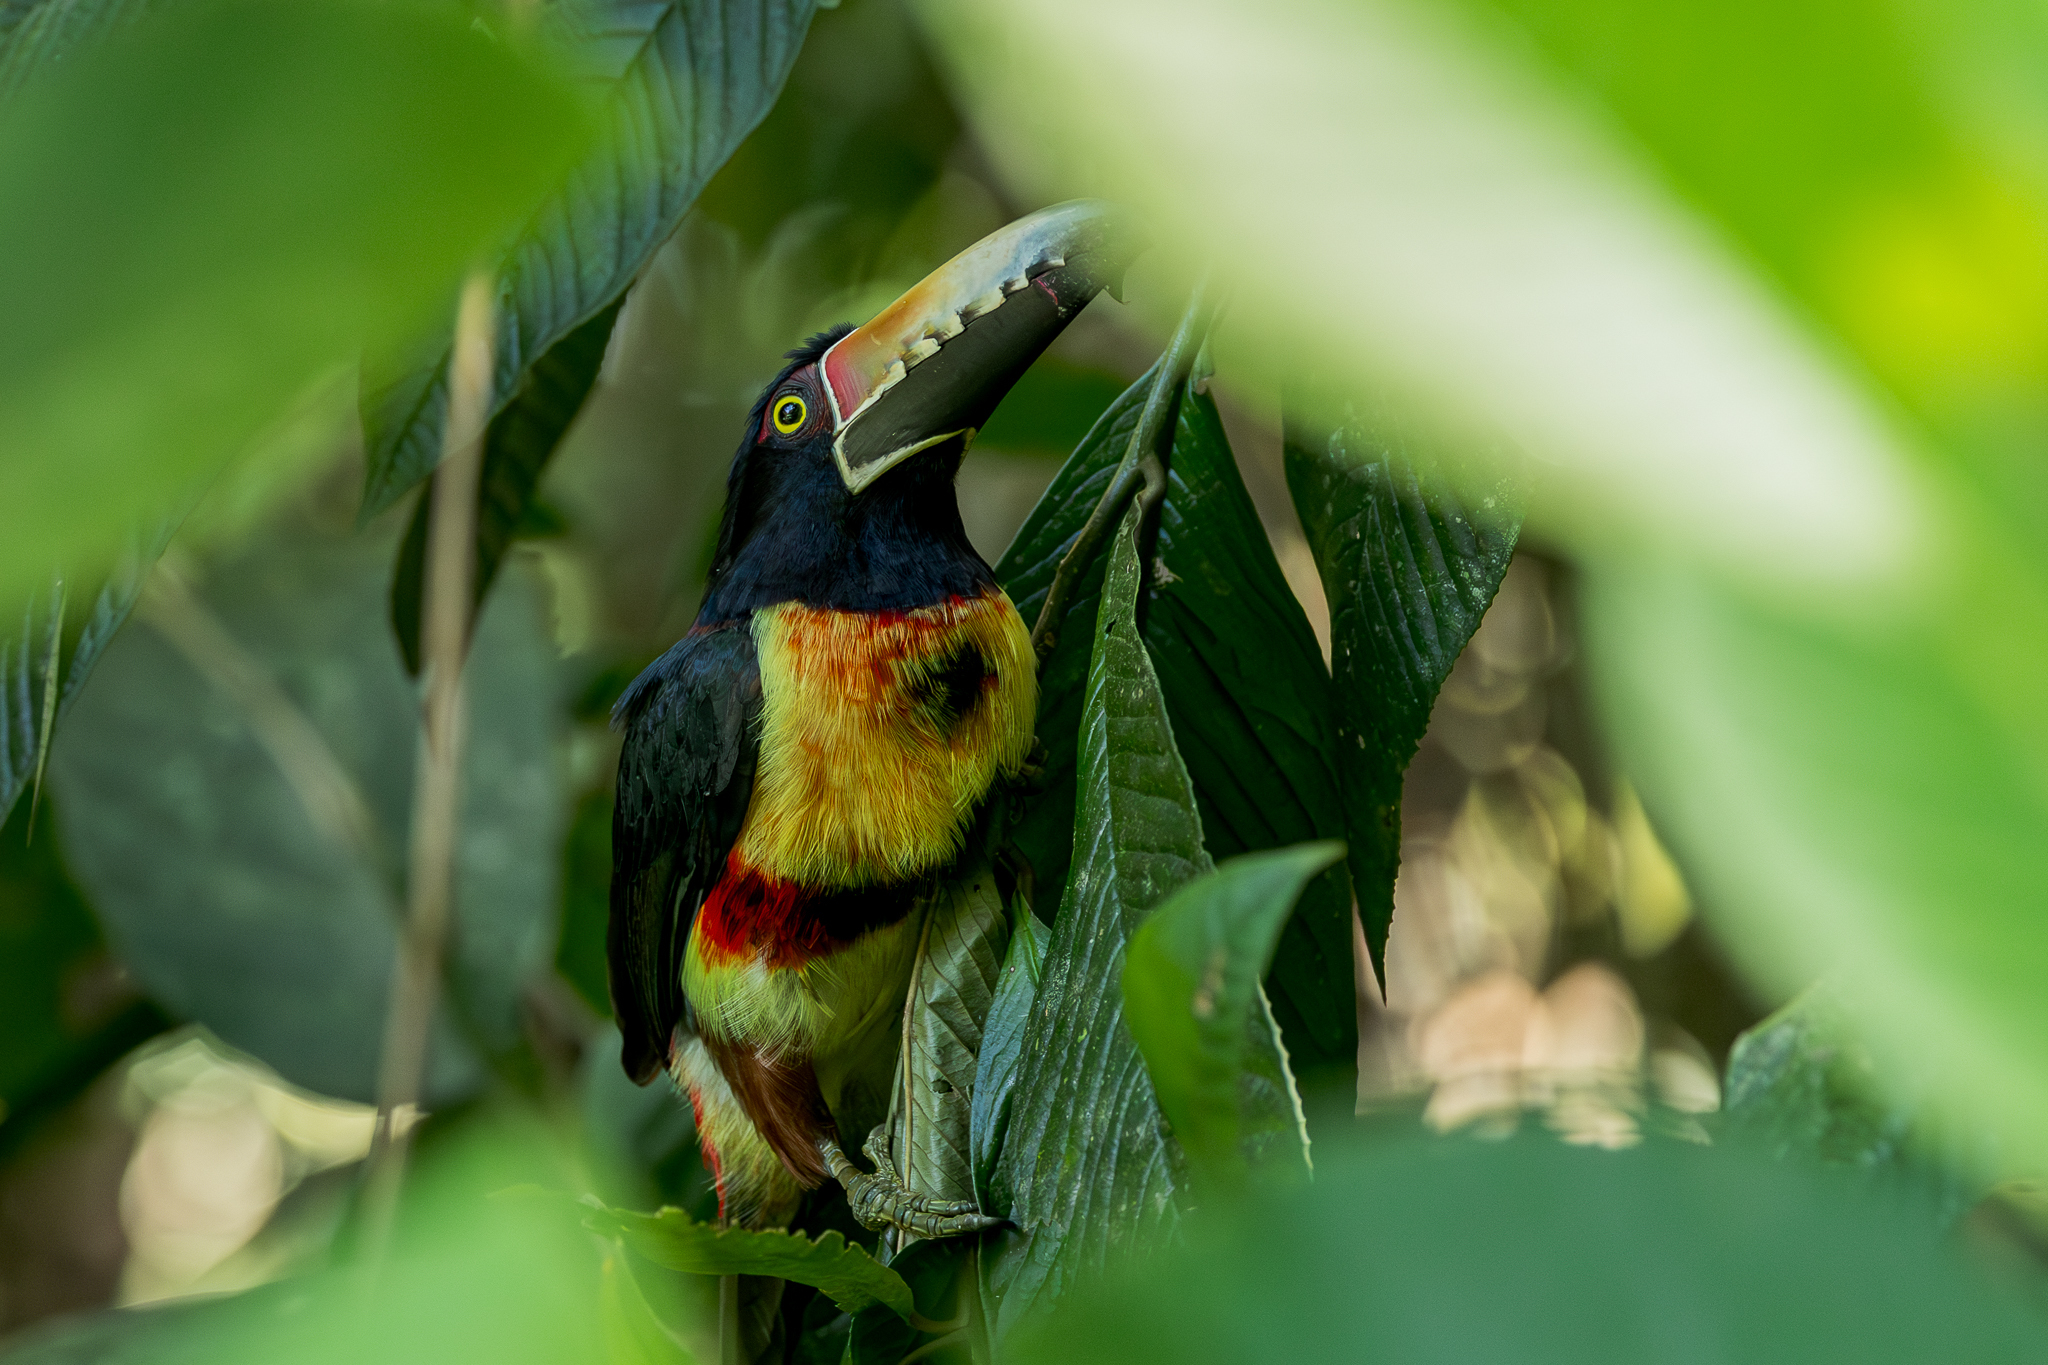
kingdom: Animalia
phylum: Chordata
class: Aves
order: Piciformes
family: Ramphastidae
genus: Pteroglossus
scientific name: Pteroglossus torquatus
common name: Collared aracari
